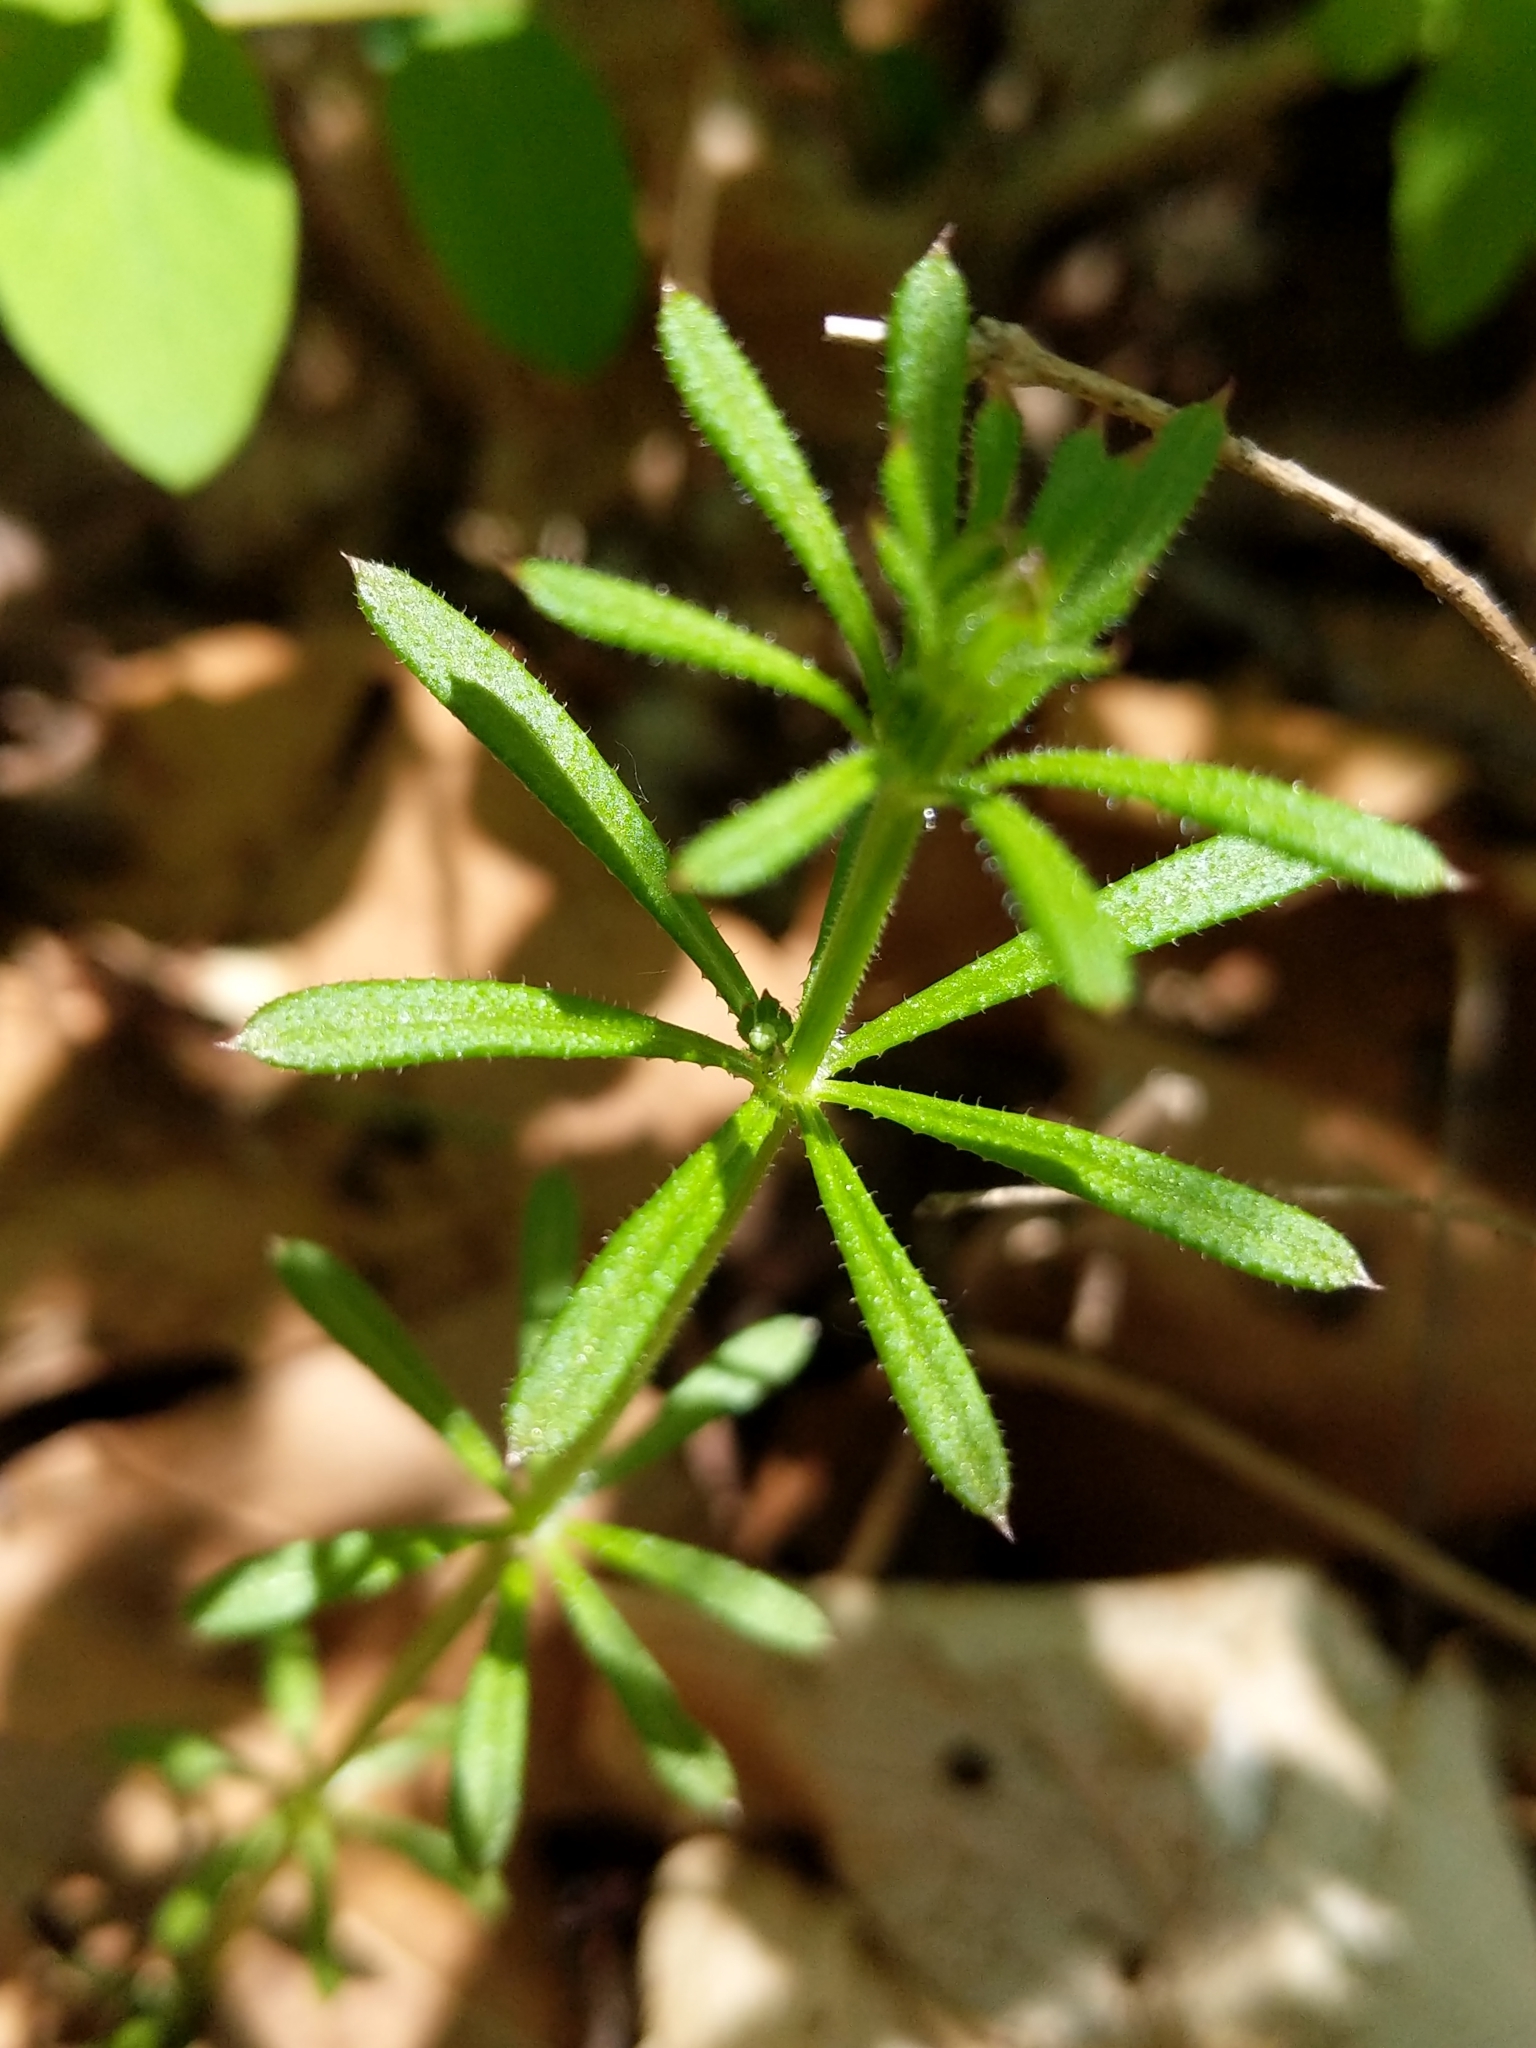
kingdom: Plantae
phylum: Tracheophyta
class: Magnoliopsida
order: Gentianales
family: Rubiaceae
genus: Galium
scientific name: Galium aparine
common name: Cleavers
